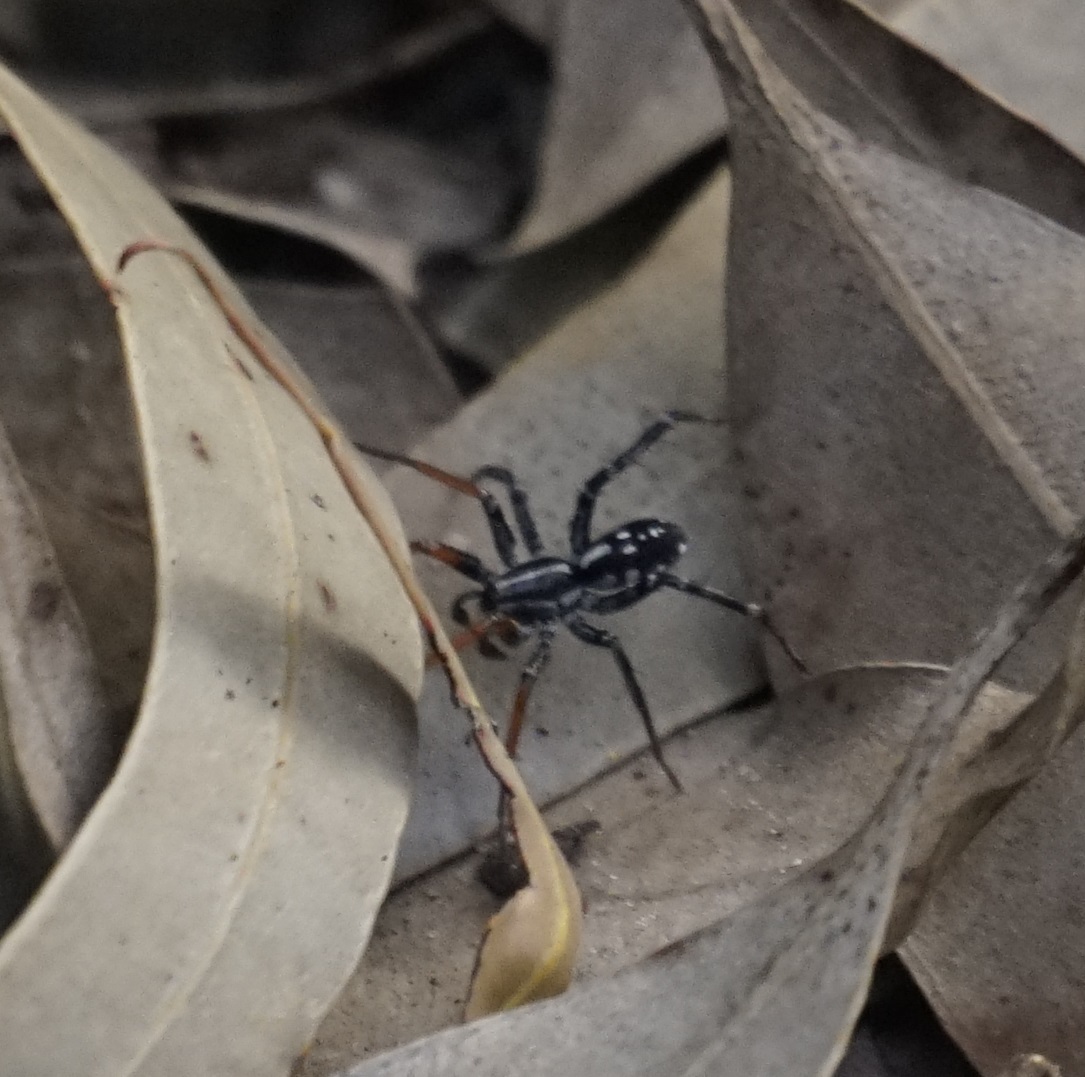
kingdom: Animalia
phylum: Arthropoda
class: Arachnida
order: Araneae
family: Corinnidae
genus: Nyssus
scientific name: Nyssus coloripes
